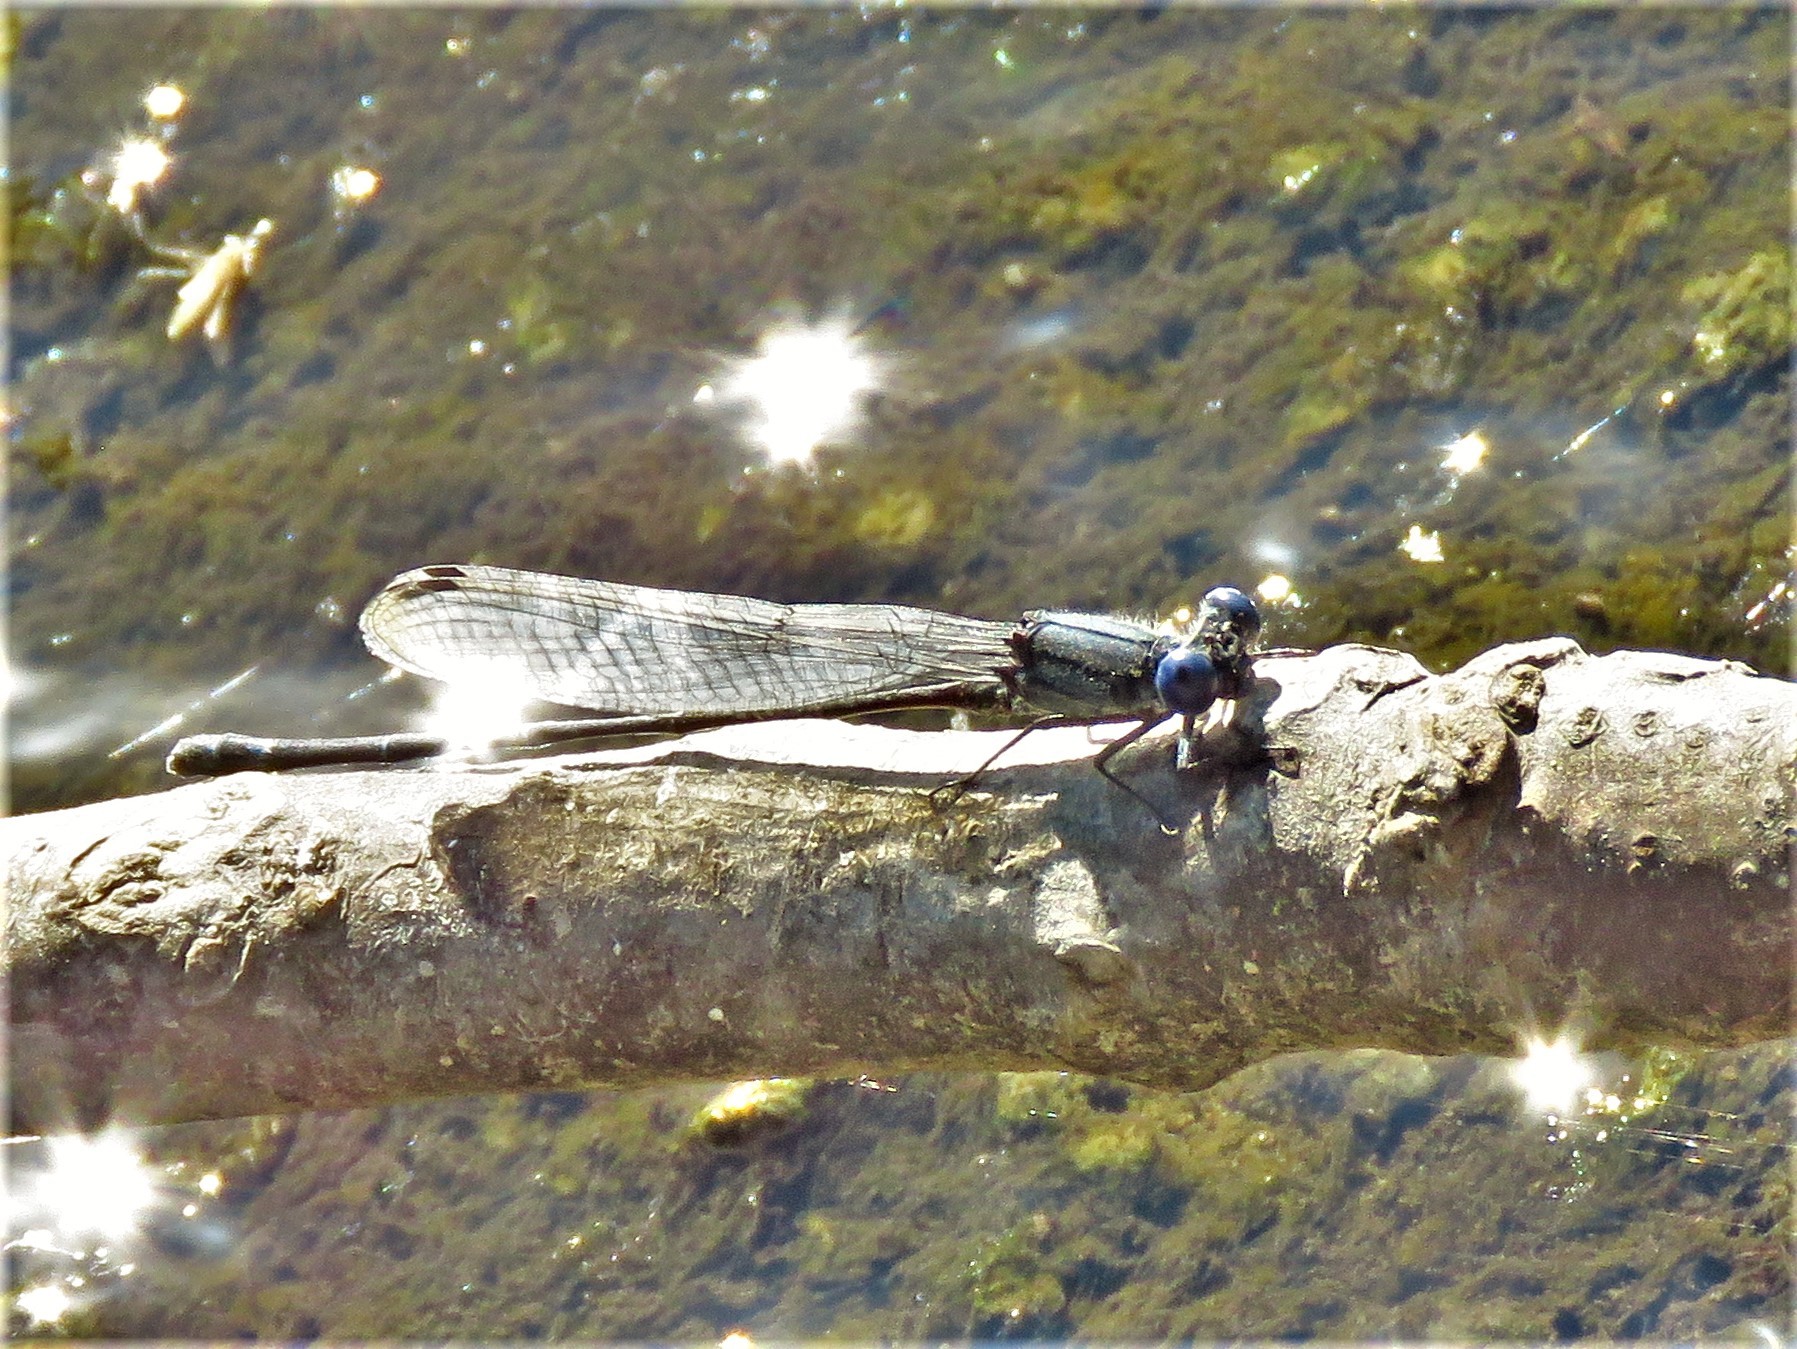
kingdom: Animalia
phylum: Arthropoda
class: Insecta
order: Odonata
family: Coenagrionidae
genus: Argia
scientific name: Argia translata
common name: Dusky dancer
